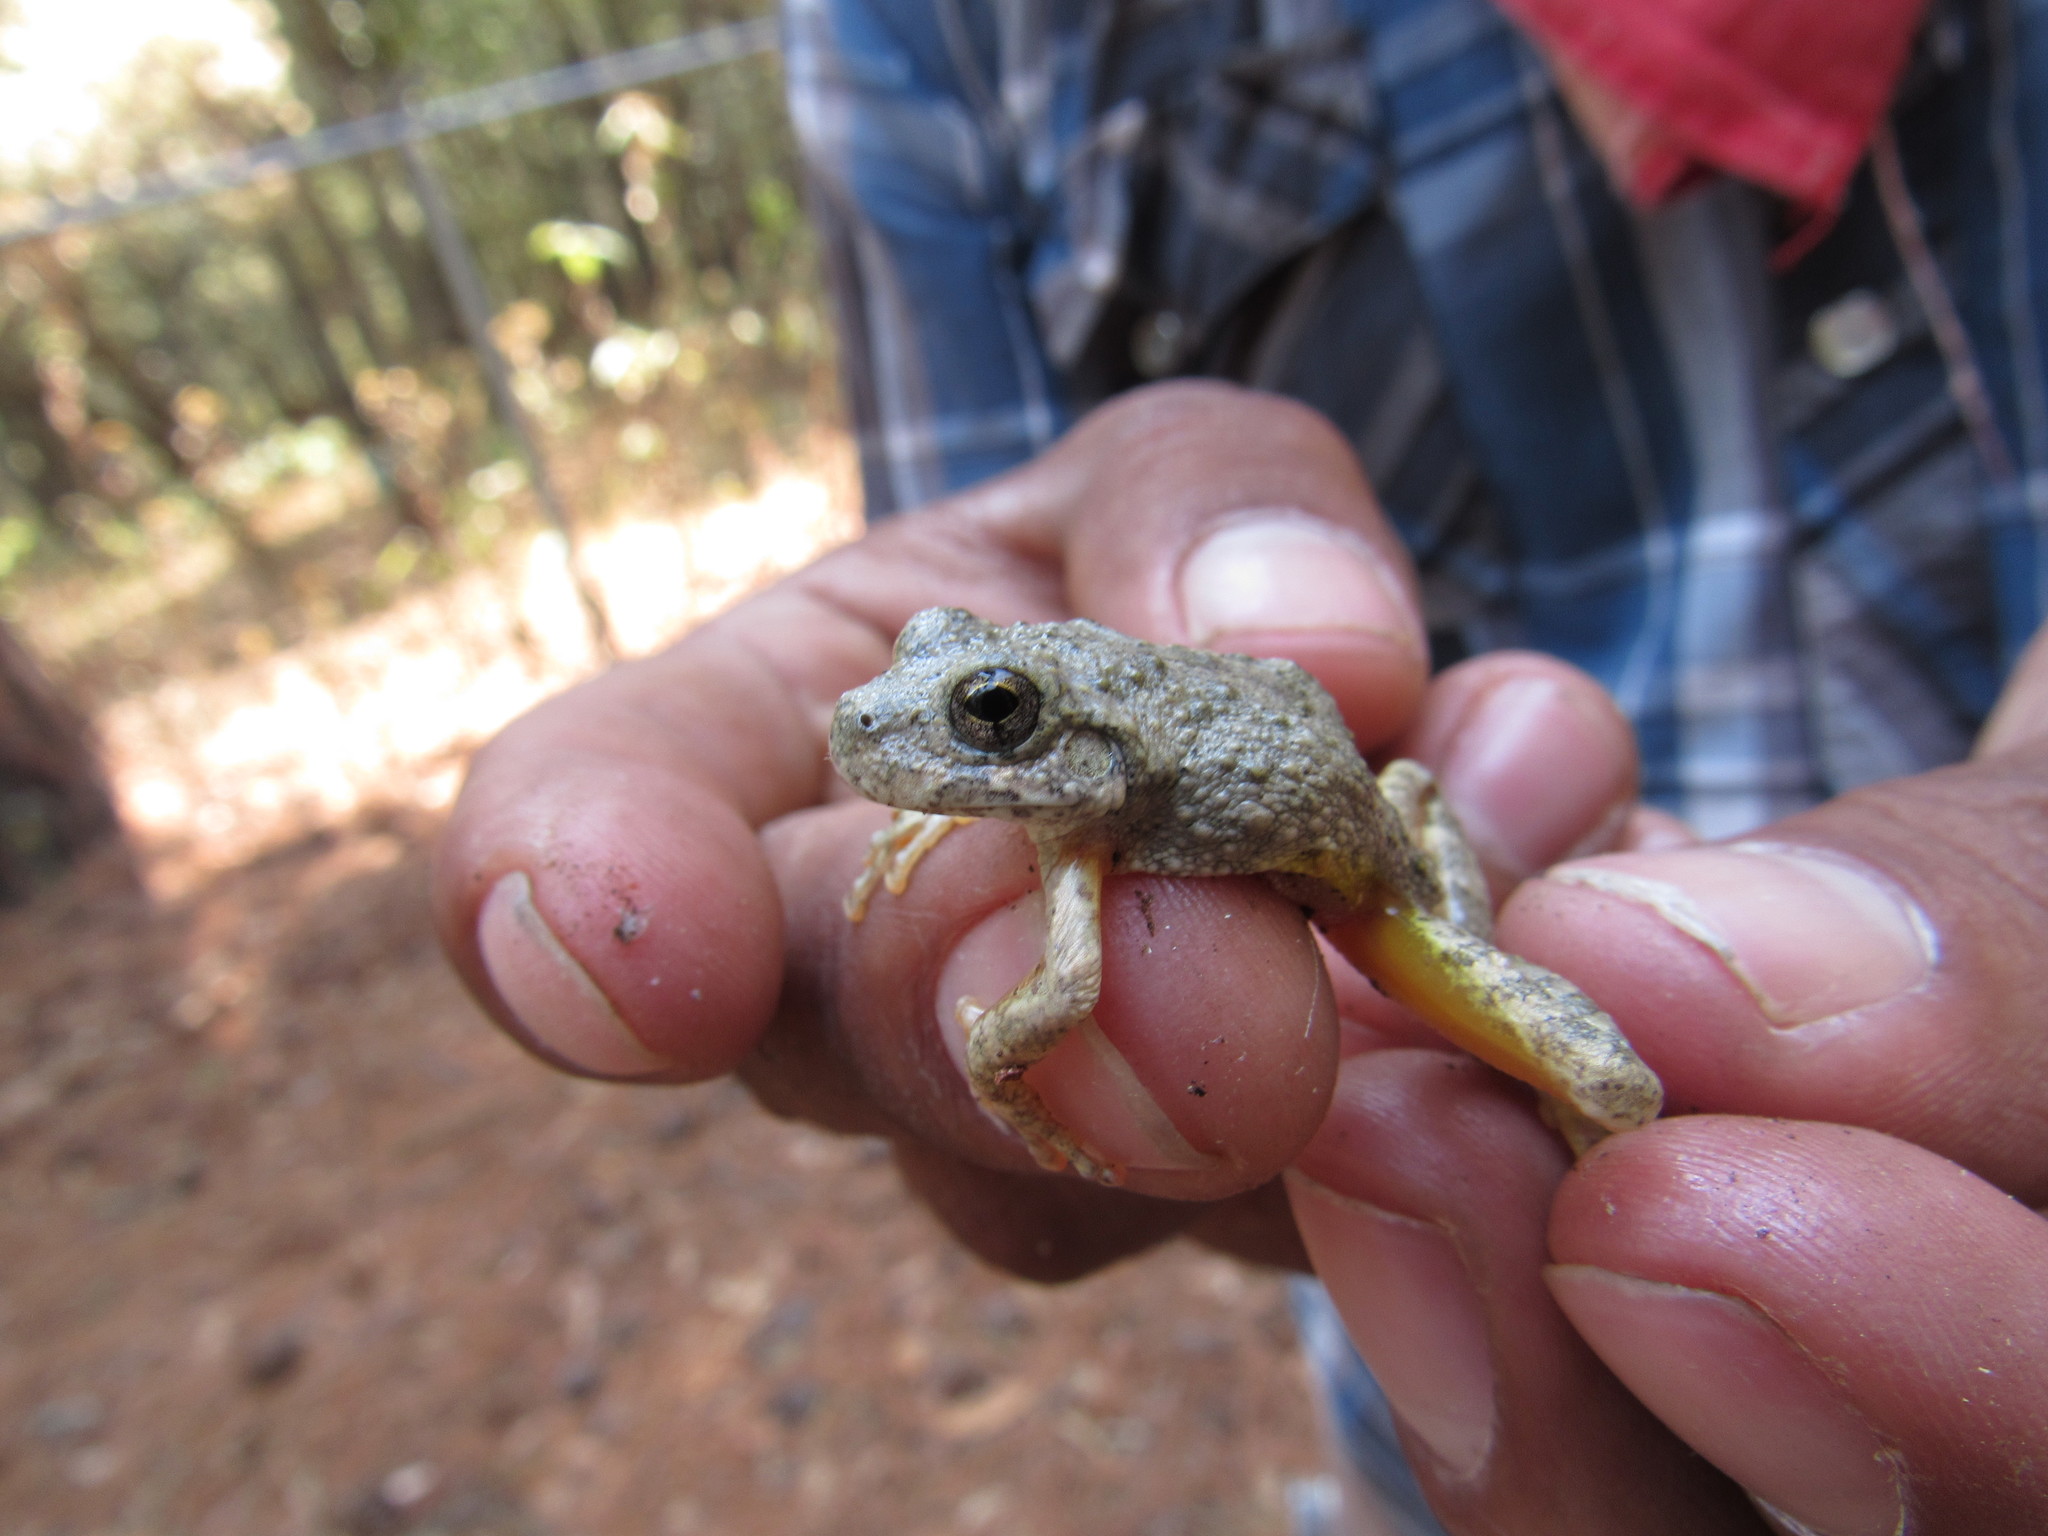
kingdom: Animalia
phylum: Chordata
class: Amphibia
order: Anura
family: Hylidae
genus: Dryophytes
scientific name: Dryophytes arenicolor
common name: Canyon treefrog
